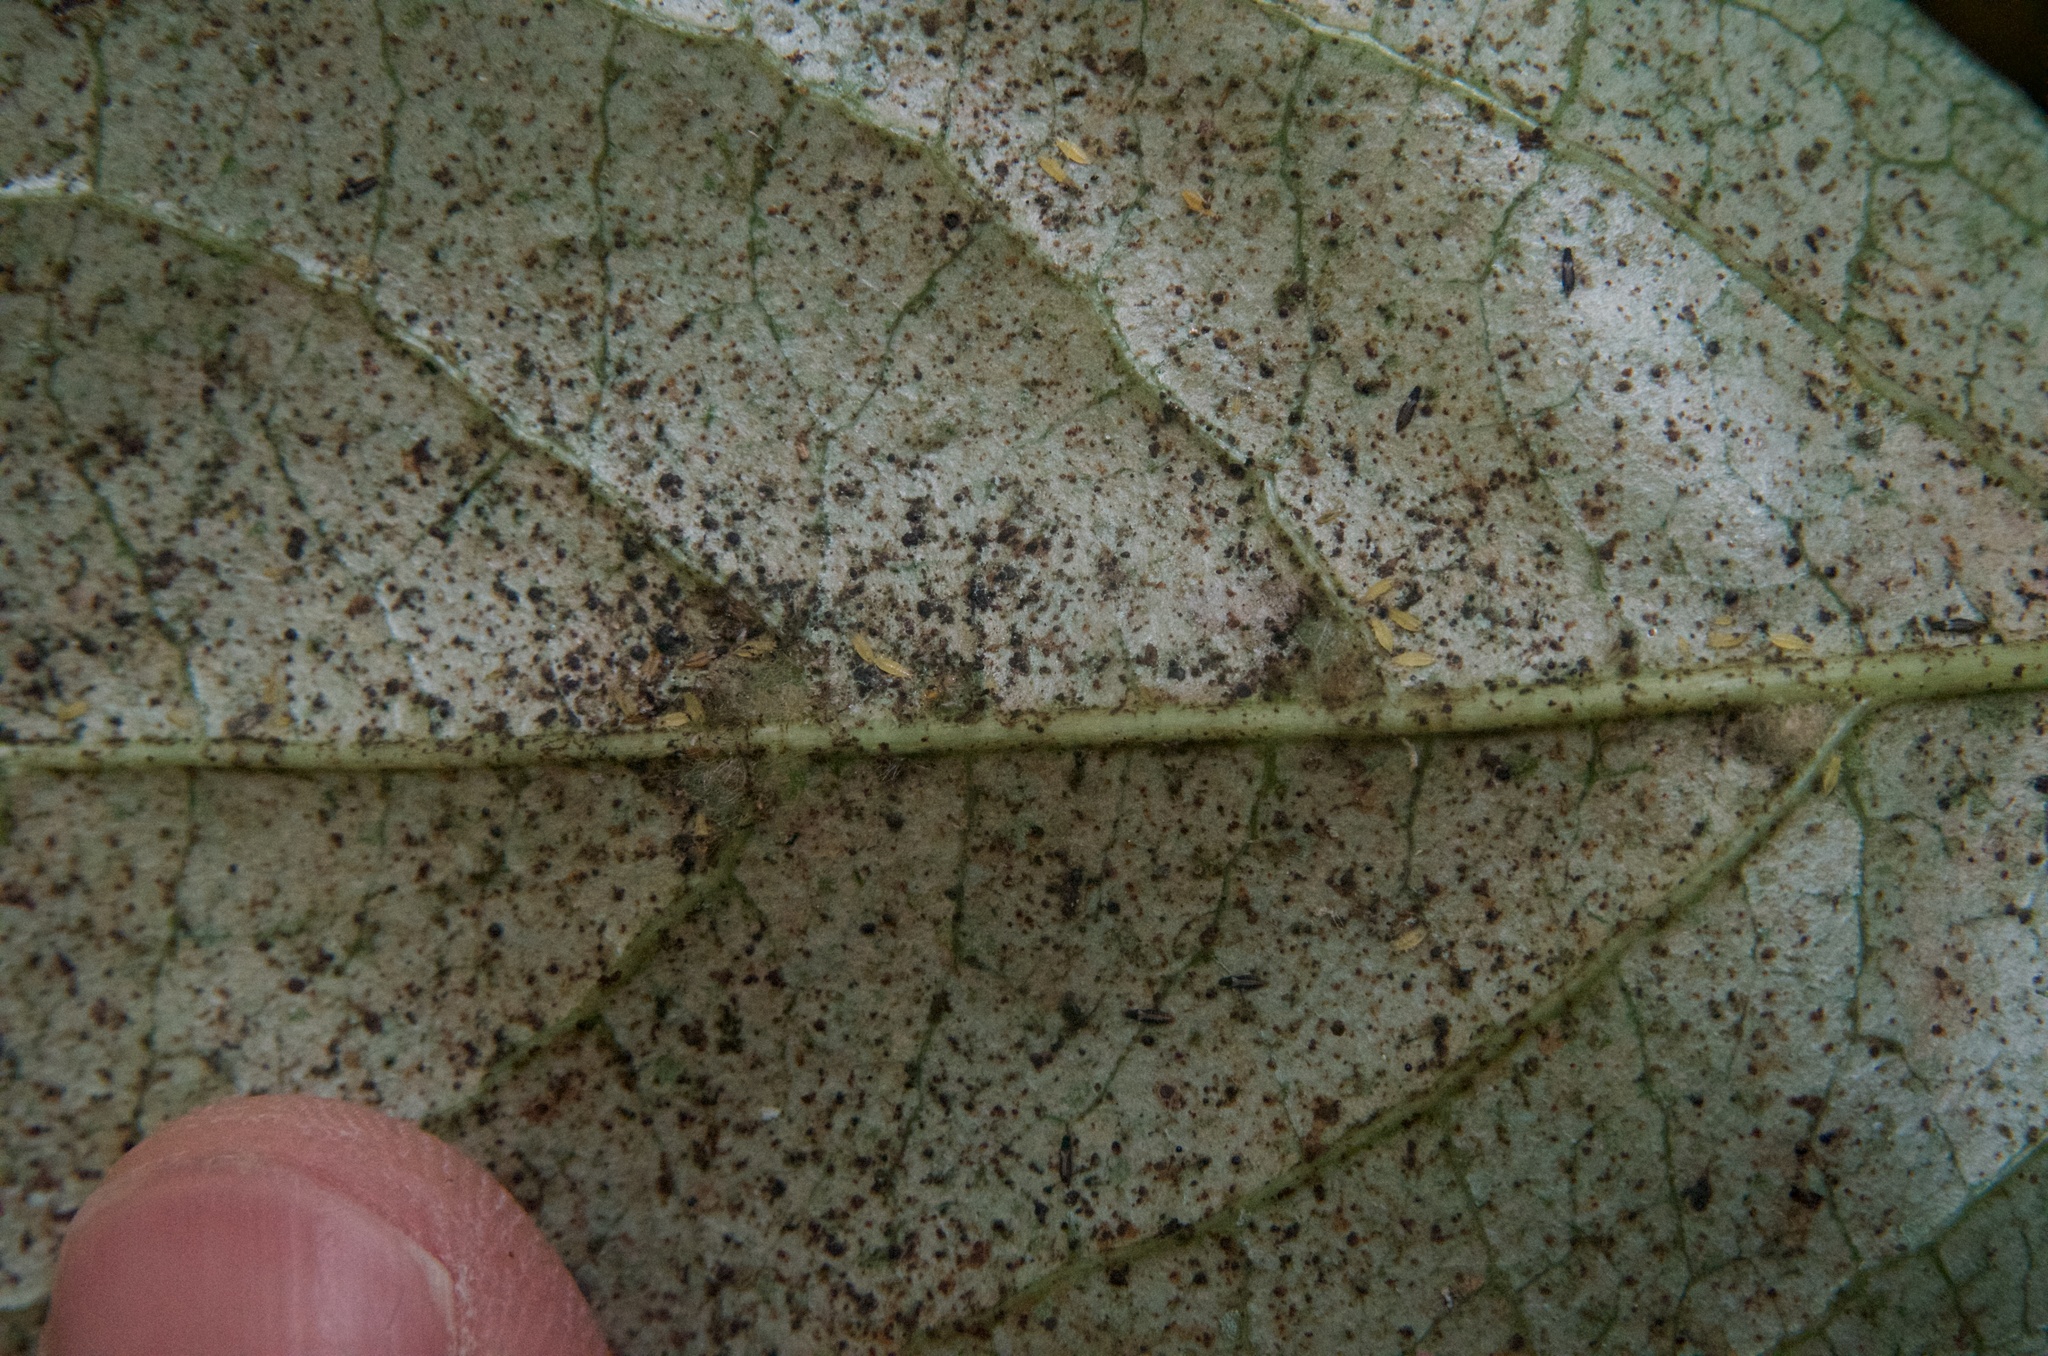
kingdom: Animalia
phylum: Arthropoda
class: Insecta
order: Thysanoptera
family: Thripidae
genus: Heliothrips
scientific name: Heliothrips haemorrhoidalis
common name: Thrips
